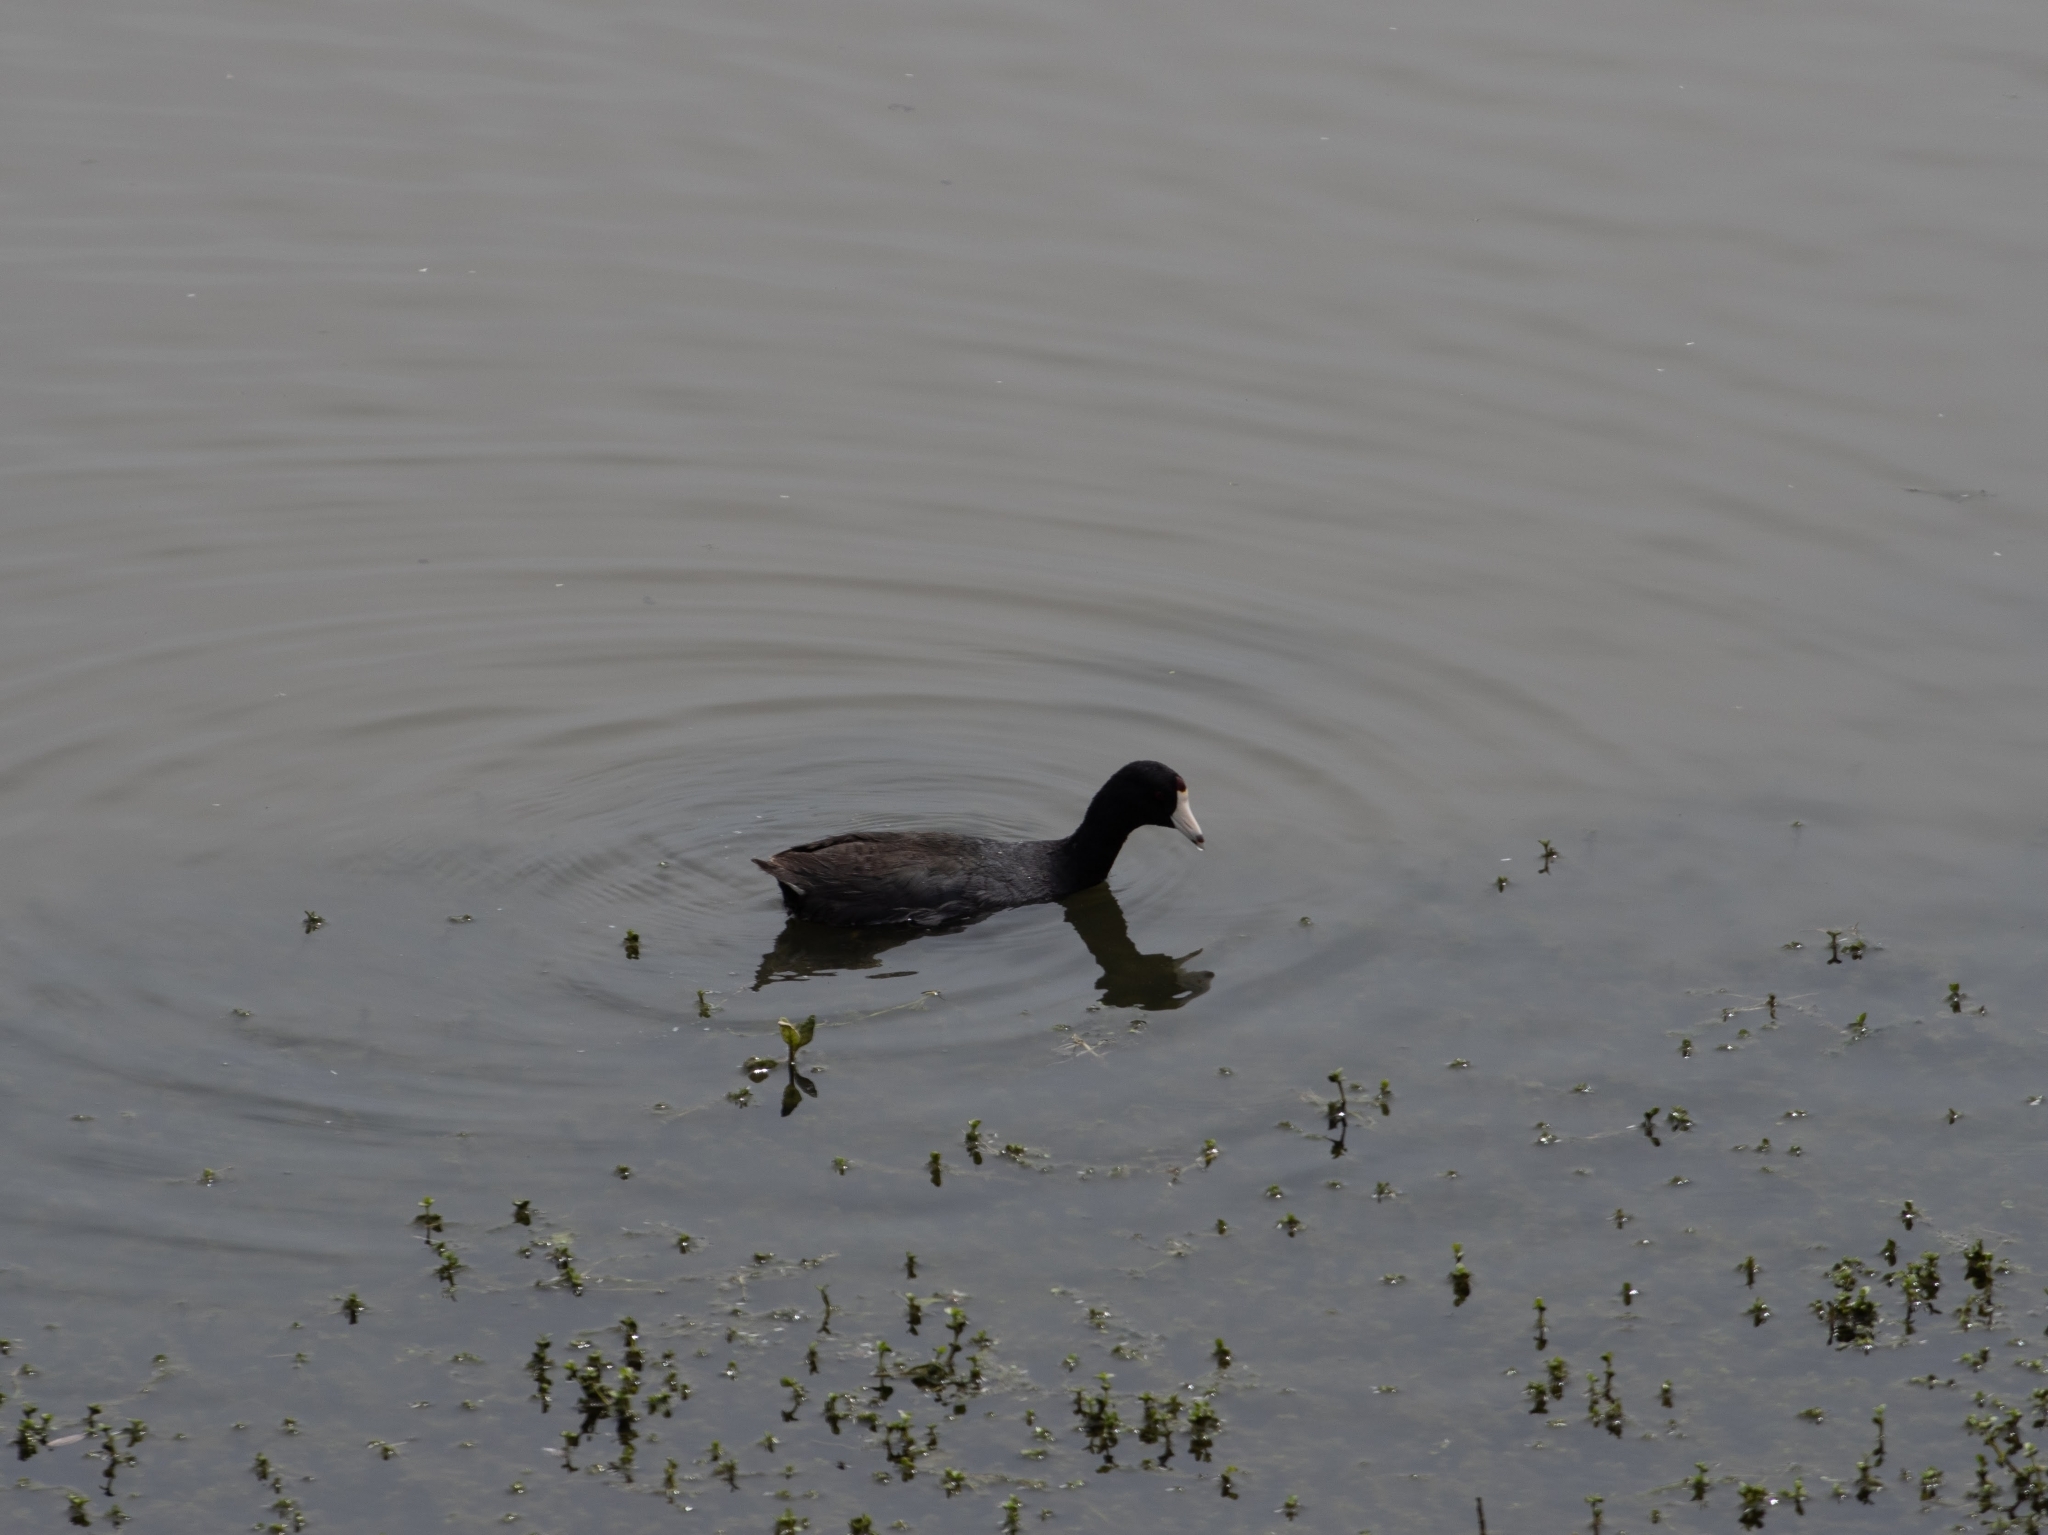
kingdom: Animalia
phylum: Chordata
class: Aves
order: Gruiformes
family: Rallidae
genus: Fulica
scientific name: Fulica americana
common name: American coot
